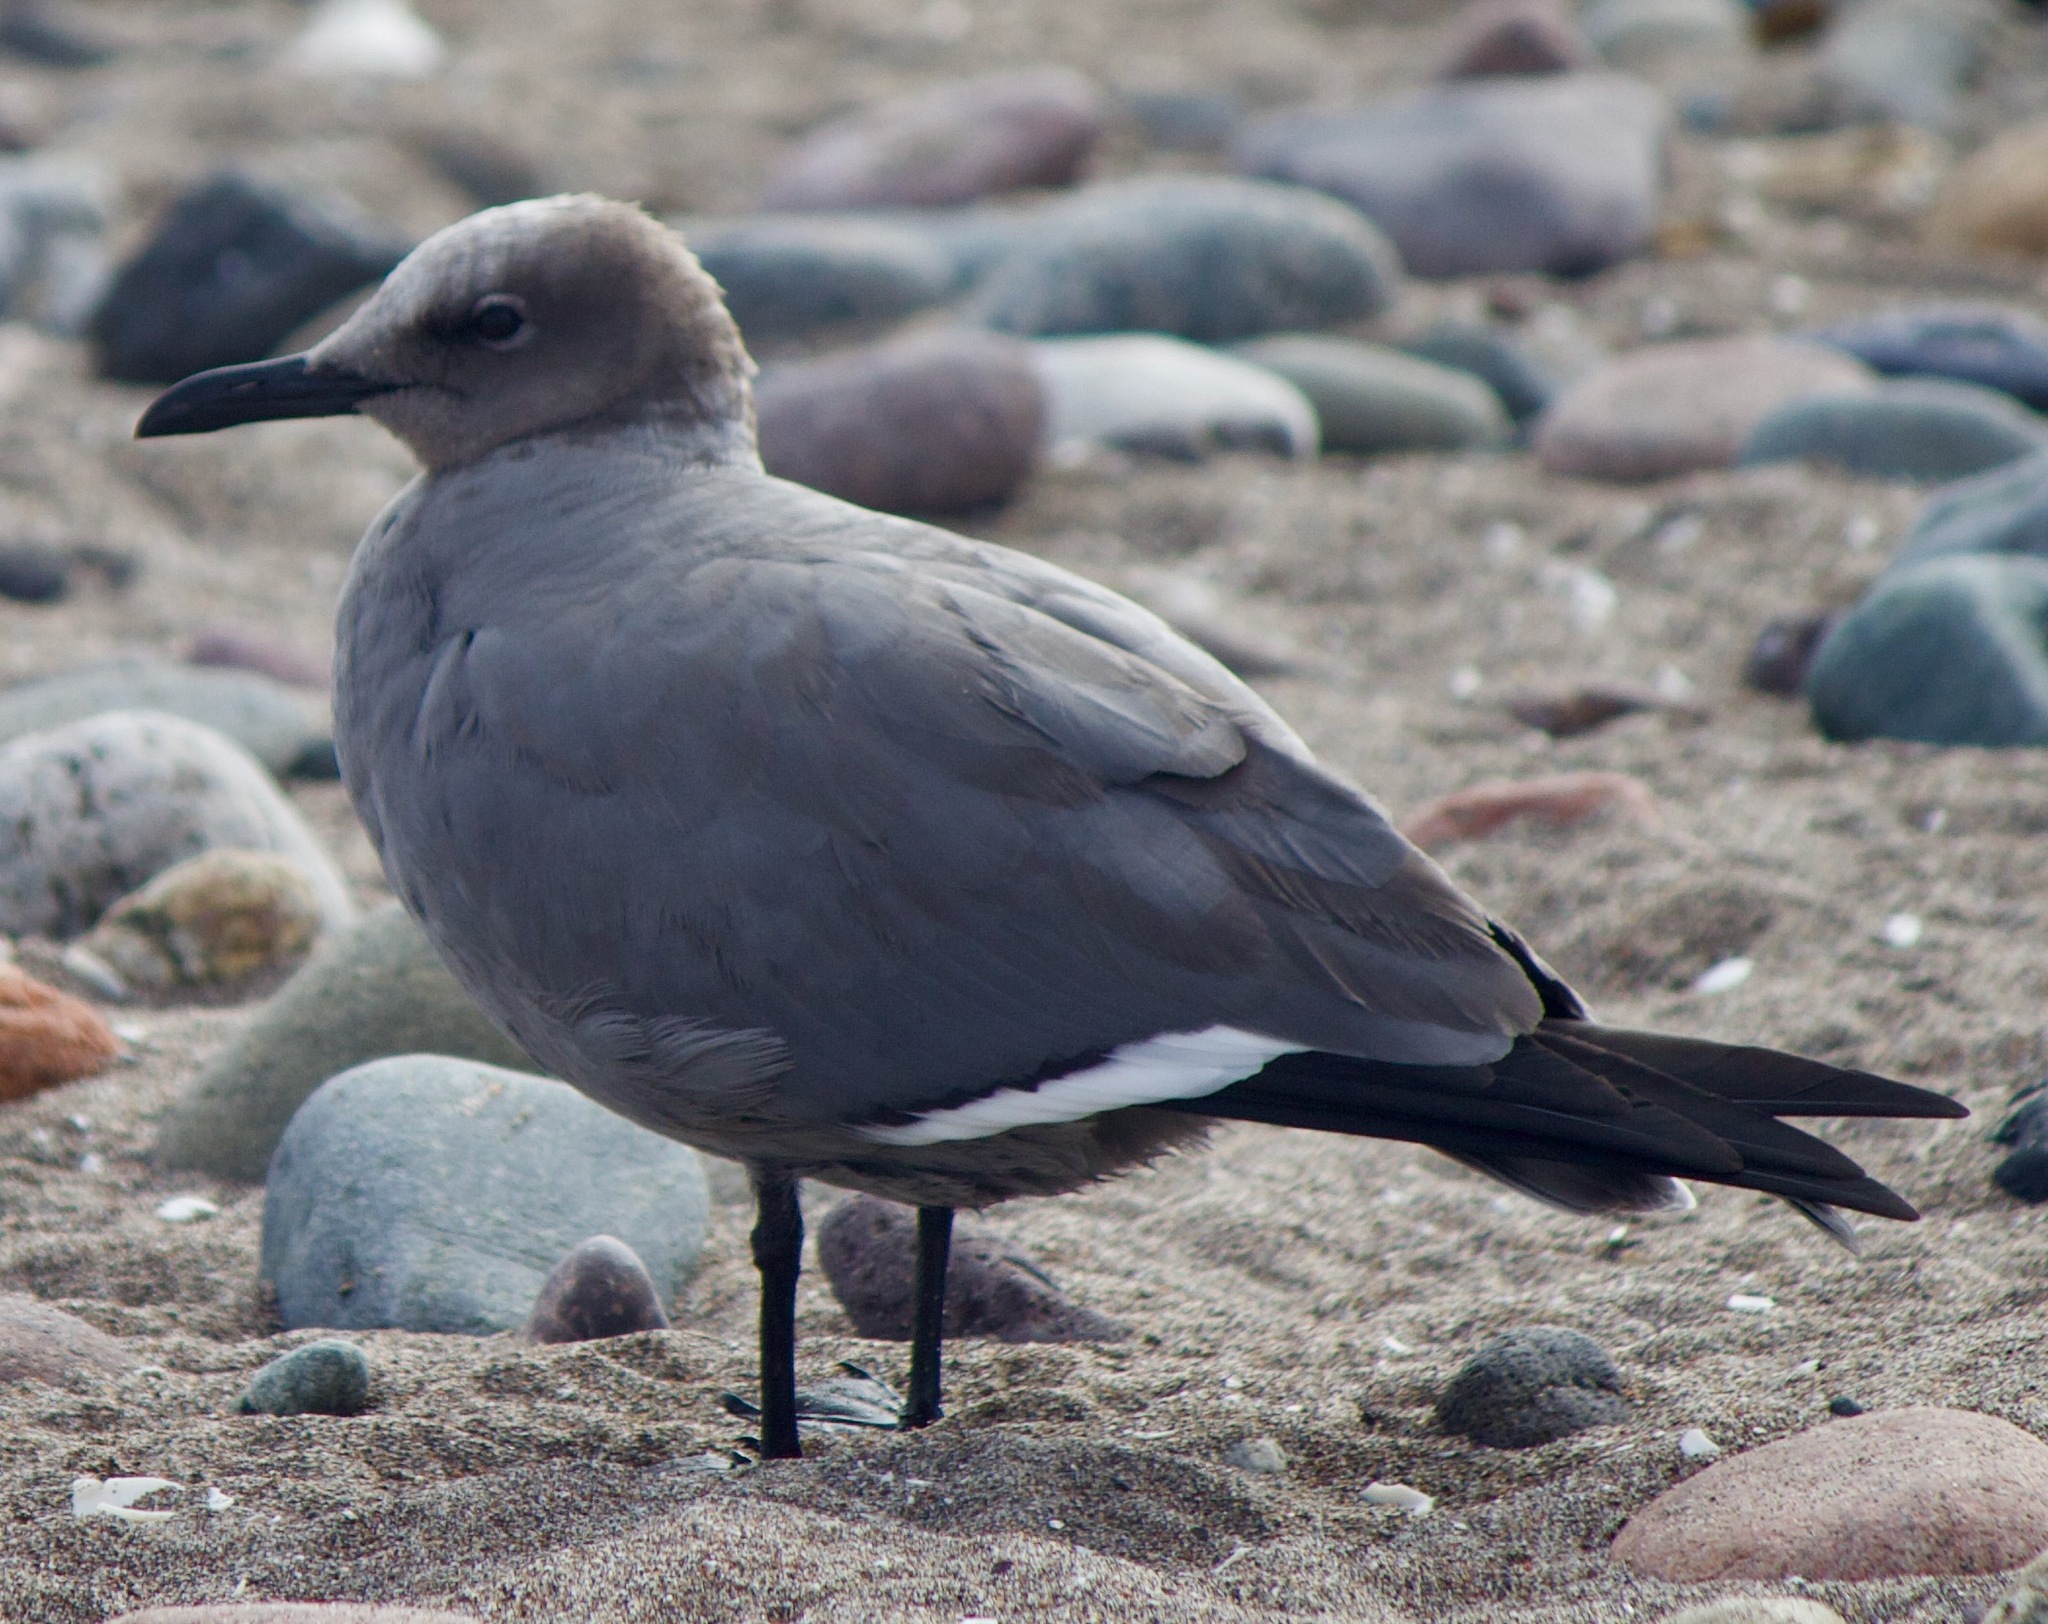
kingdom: Animalia
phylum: Chordata
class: Aves
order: Charadriiformes
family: Laridae
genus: Leucophaeus
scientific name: Leucophaeus modestus
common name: Gray gull
